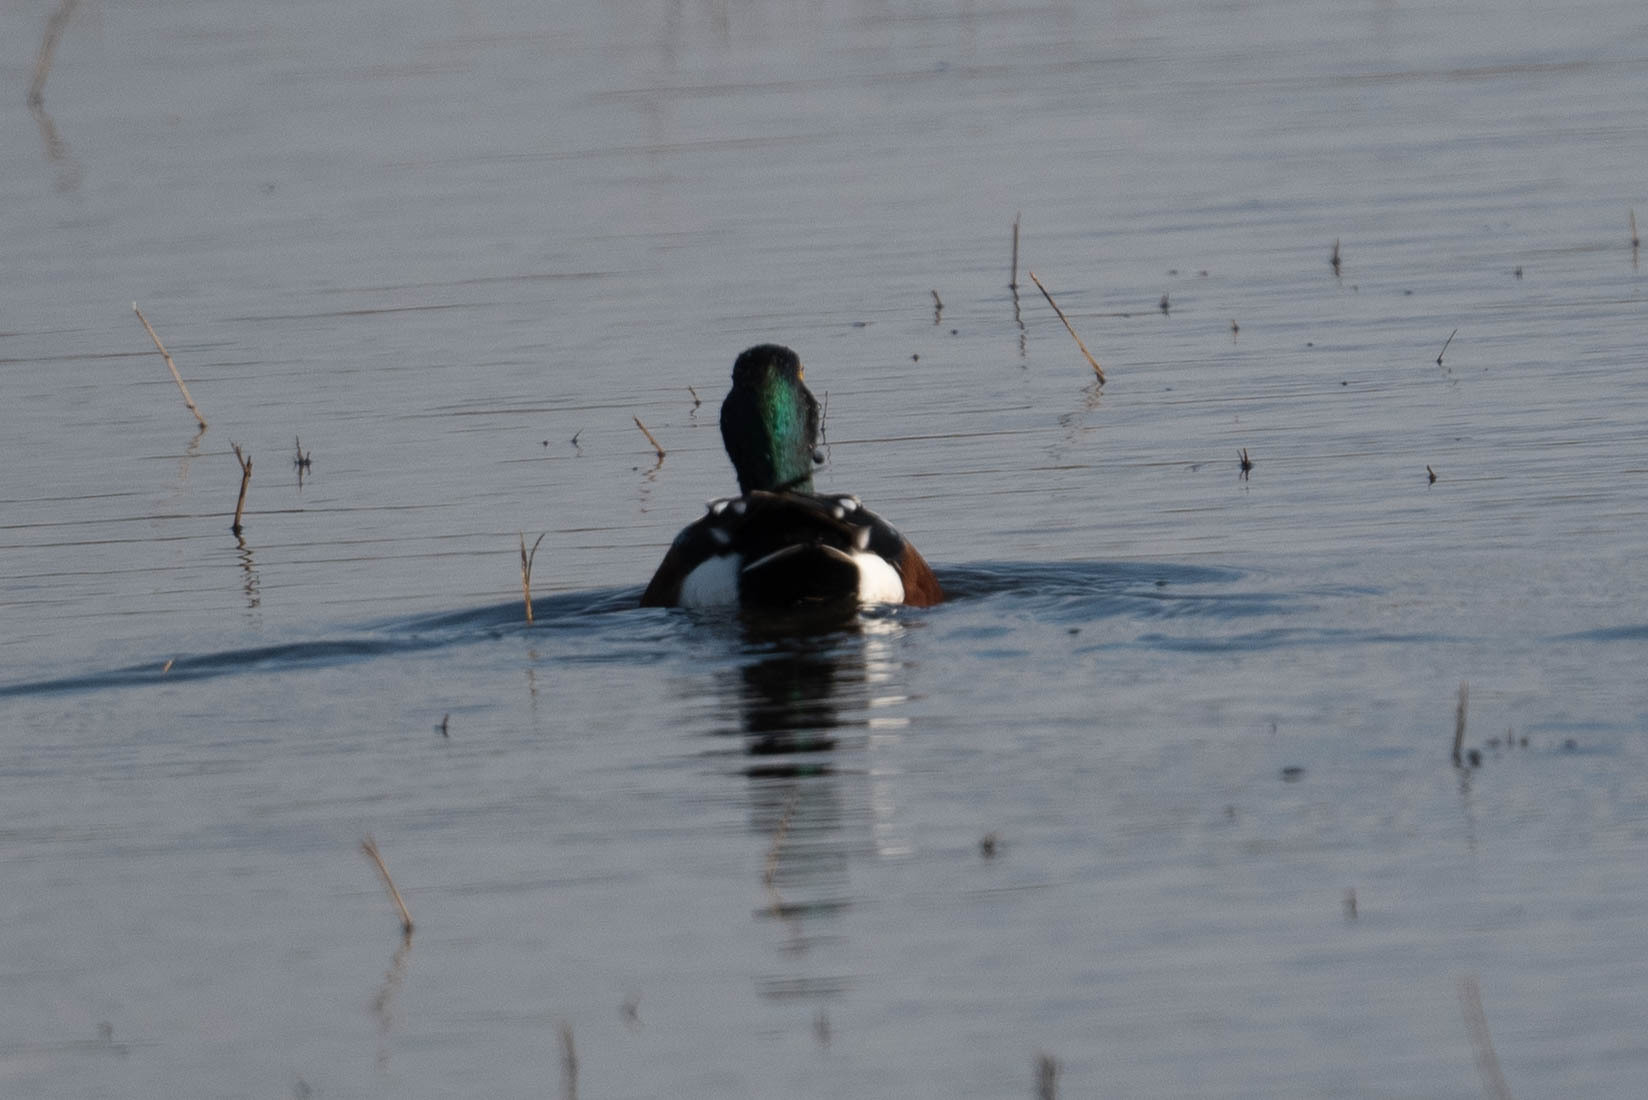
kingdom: Animalia
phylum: Chordata
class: Aves
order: Anseriformes
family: Anatidae
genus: Spatula
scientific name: Spatula clypeata
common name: Northern shoveler
